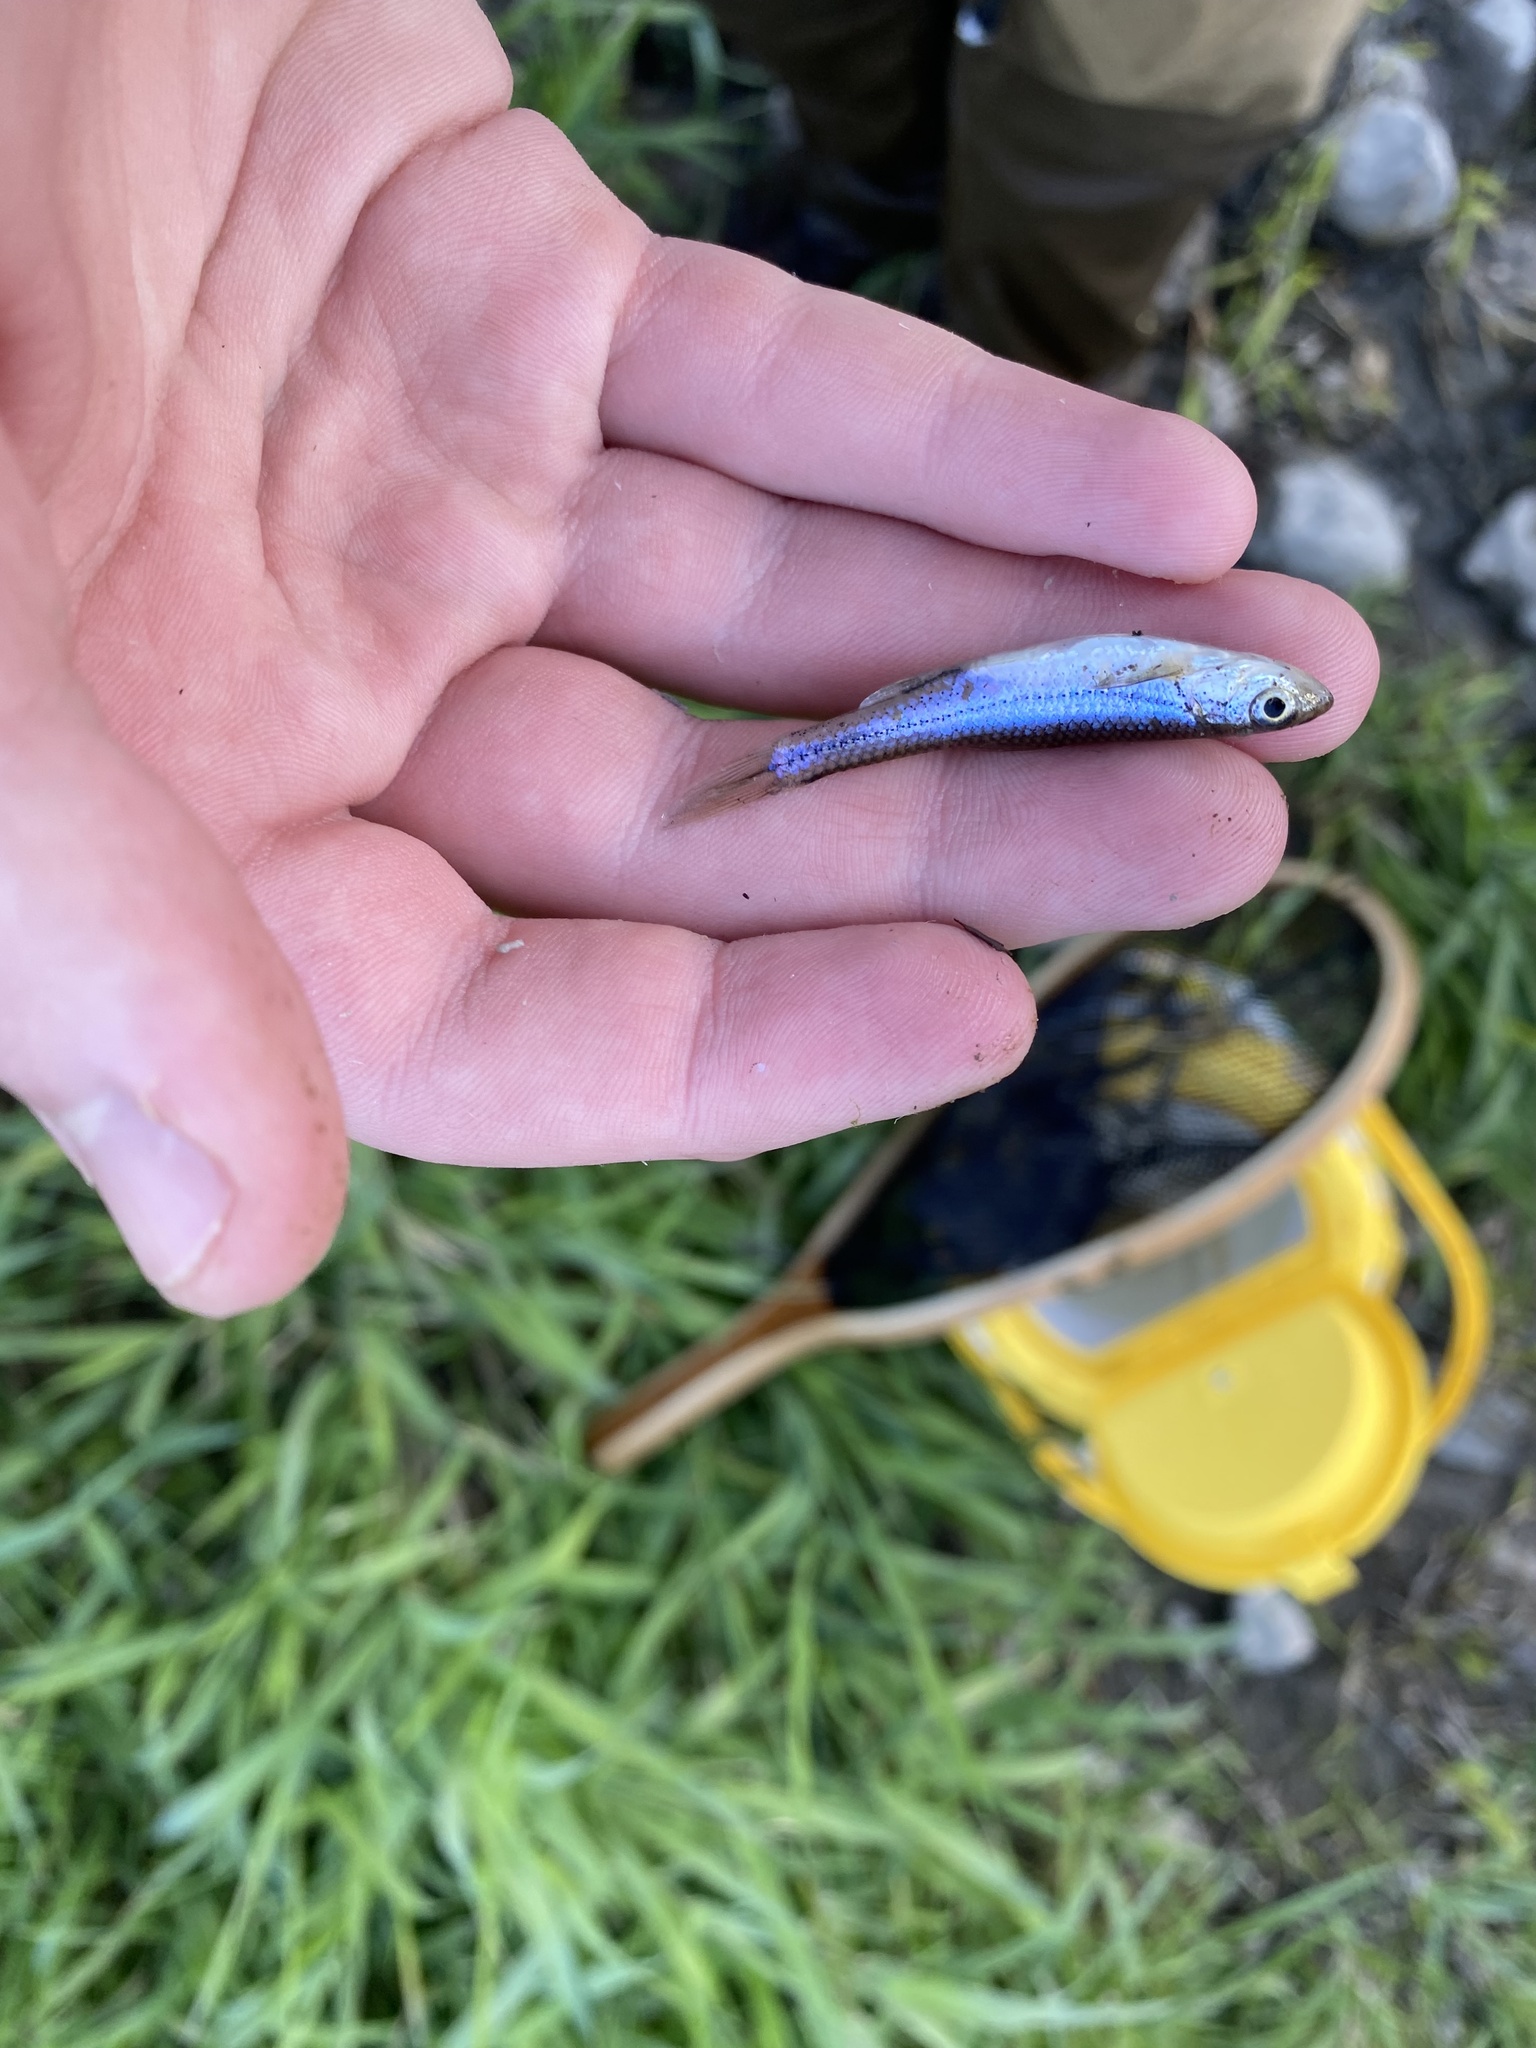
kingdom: Animalia
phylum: Chordata
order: Cypriniformes
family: Cyprinidae
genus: Notropis
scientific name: Notropis
